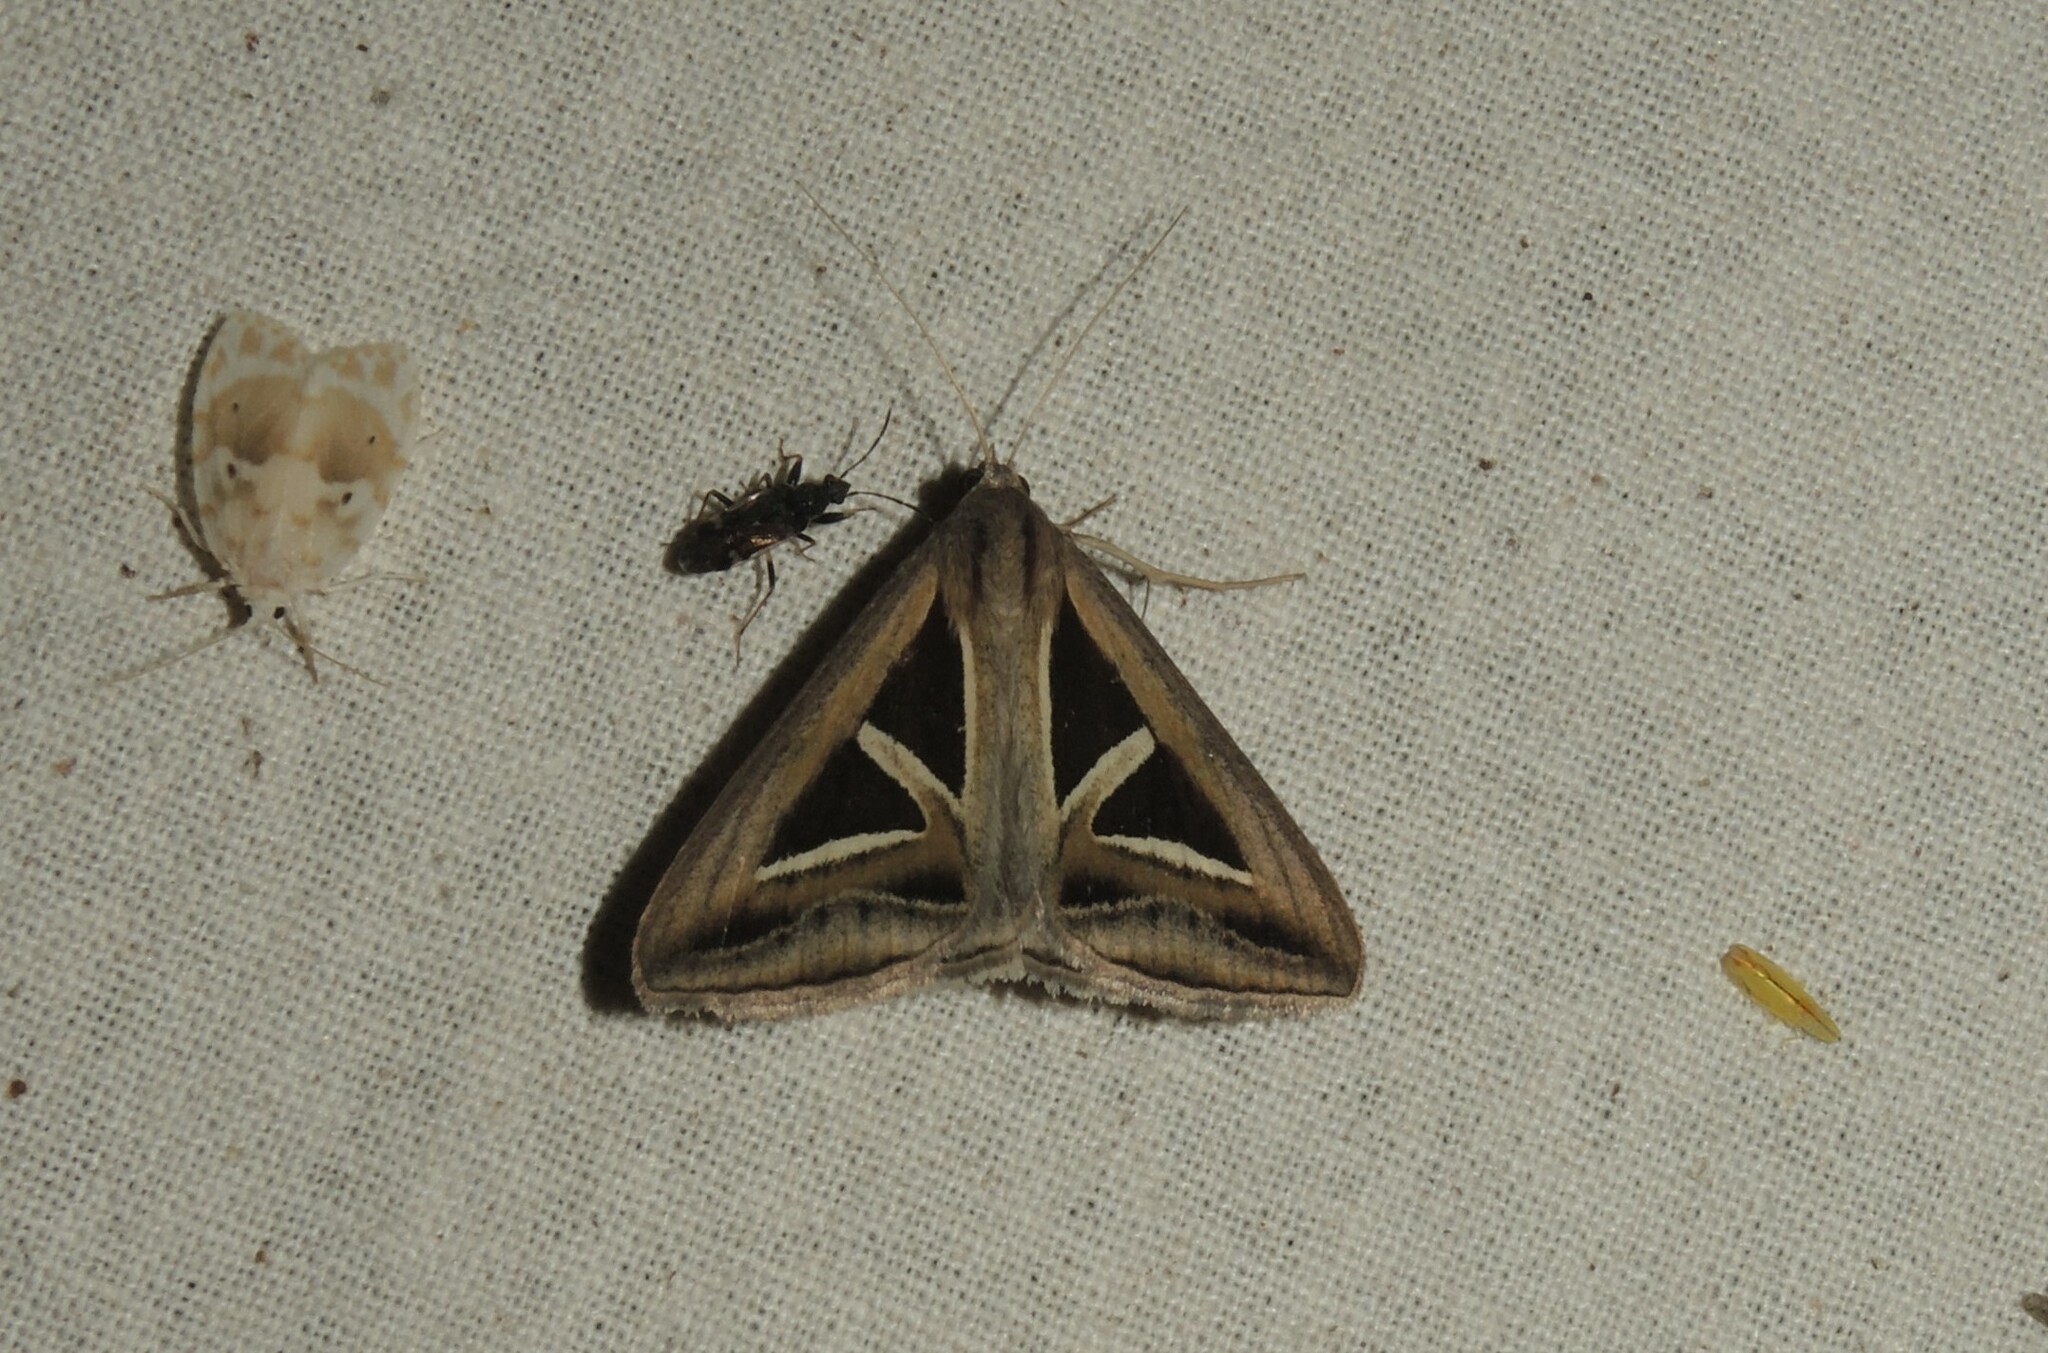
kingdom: Animalia
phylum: Arthropoda
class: Insecta
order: Lepidoptera
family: Erebidae
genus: Trigonodes
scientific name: Trigonodes hyppasia
